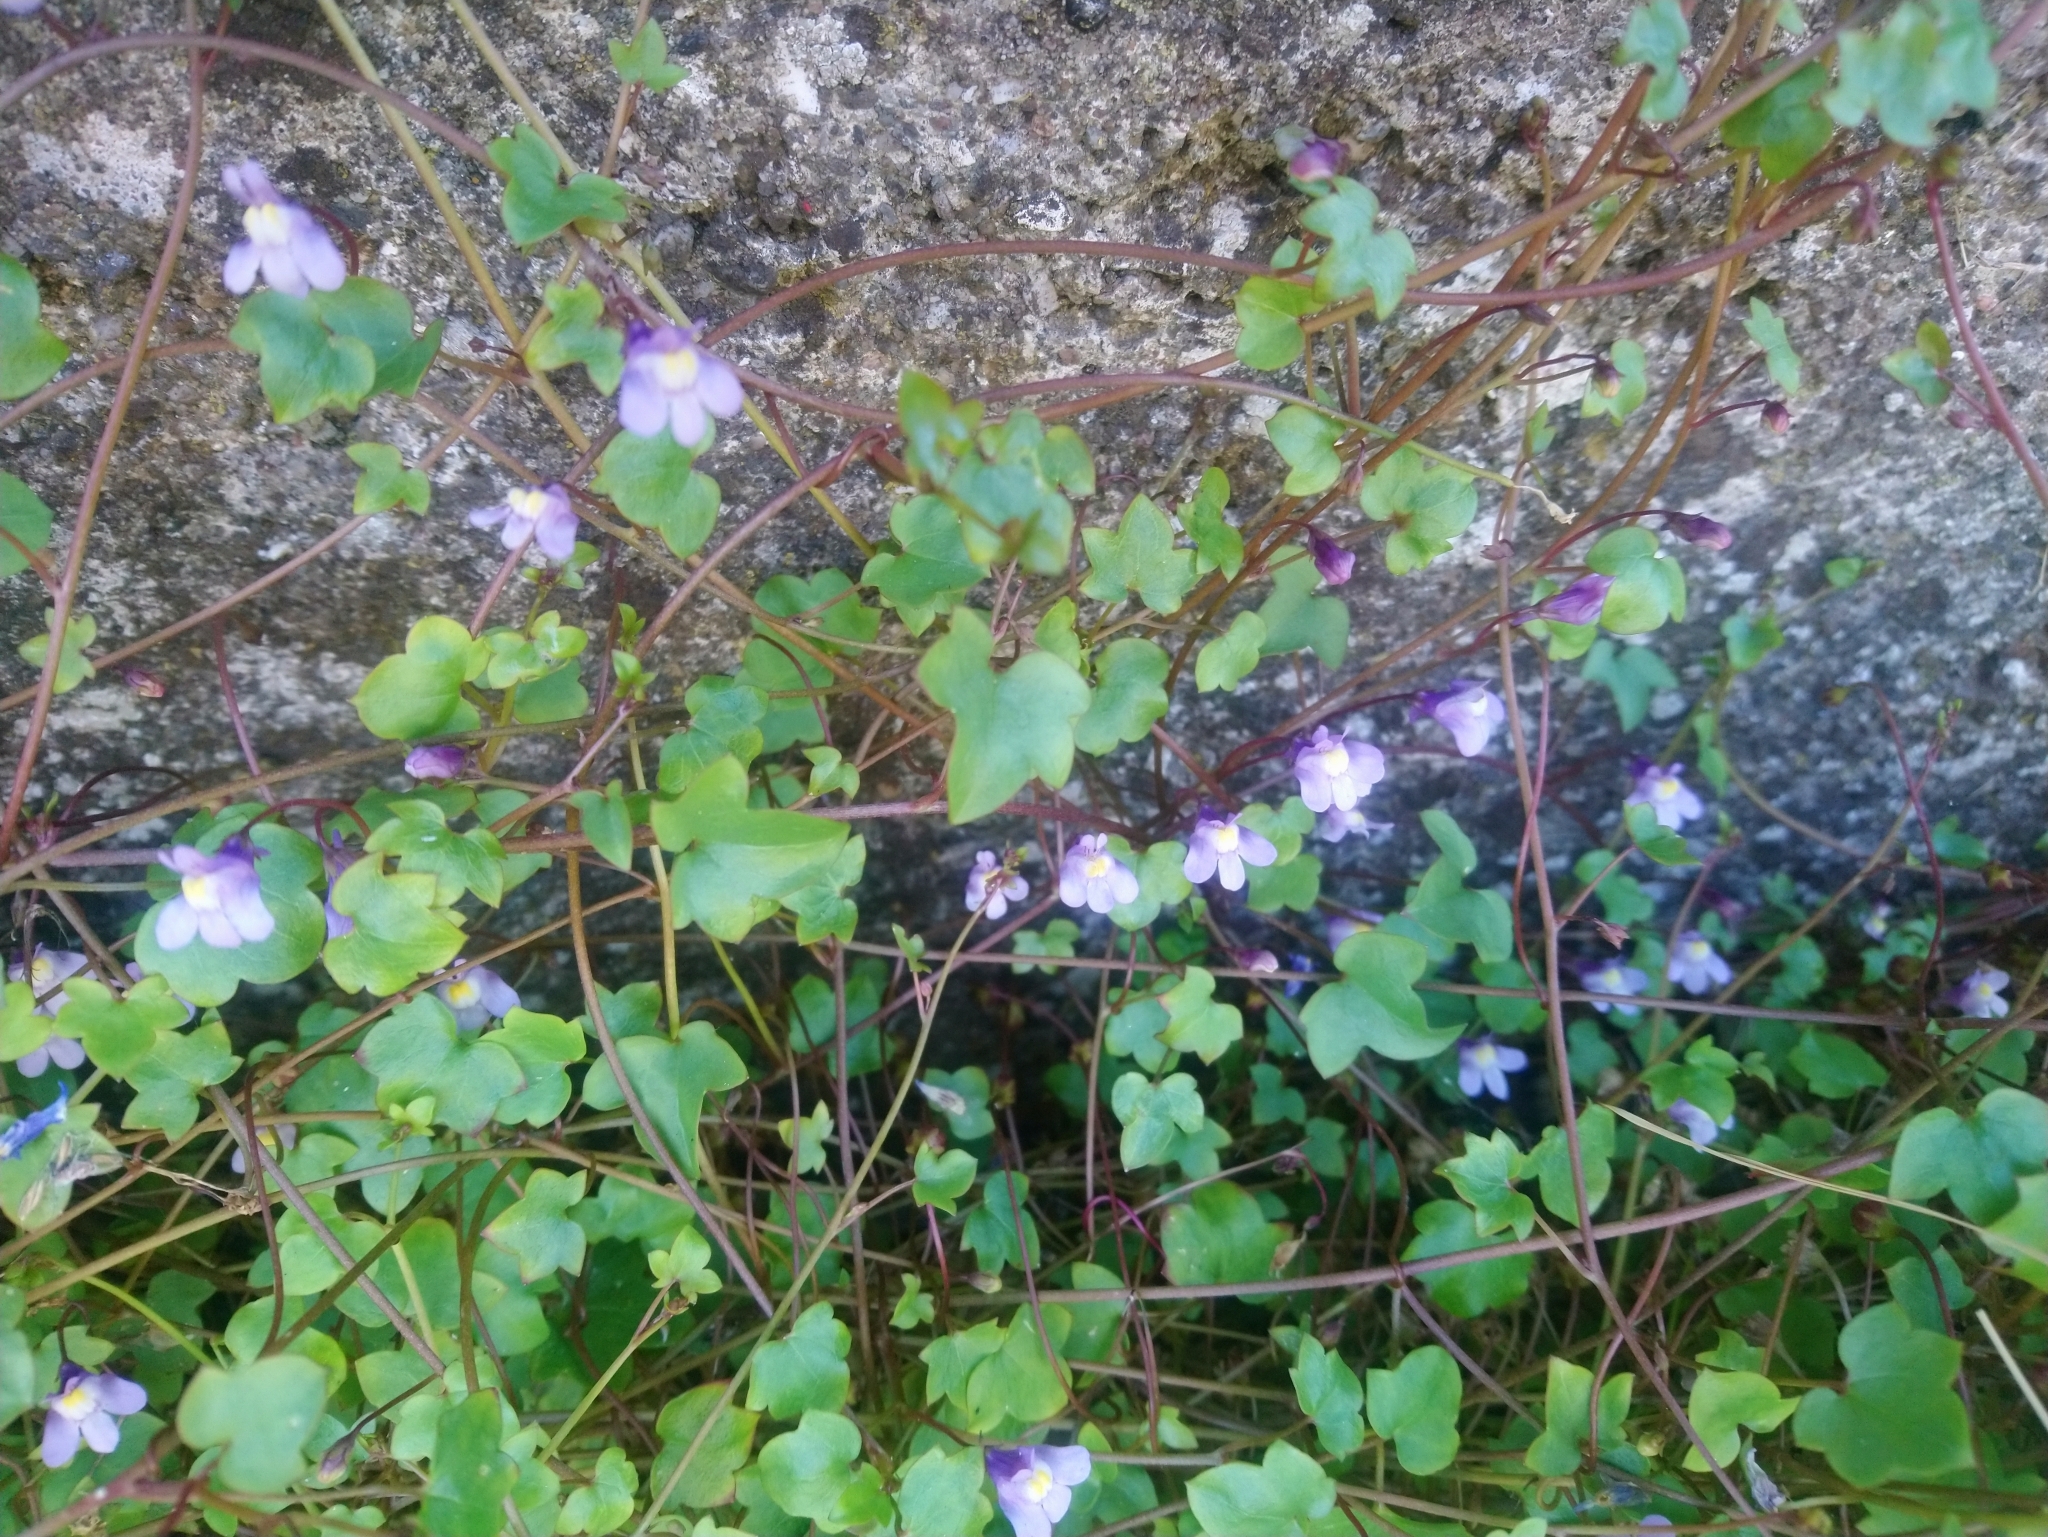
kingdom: Plantae
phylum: Tracheophyta
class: Magnoliopsida
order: Lamiales
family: Plantaginaceae
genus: Cymbalaria
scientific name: Cymbalaria muralis
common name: Ivy-leaved toadflax
